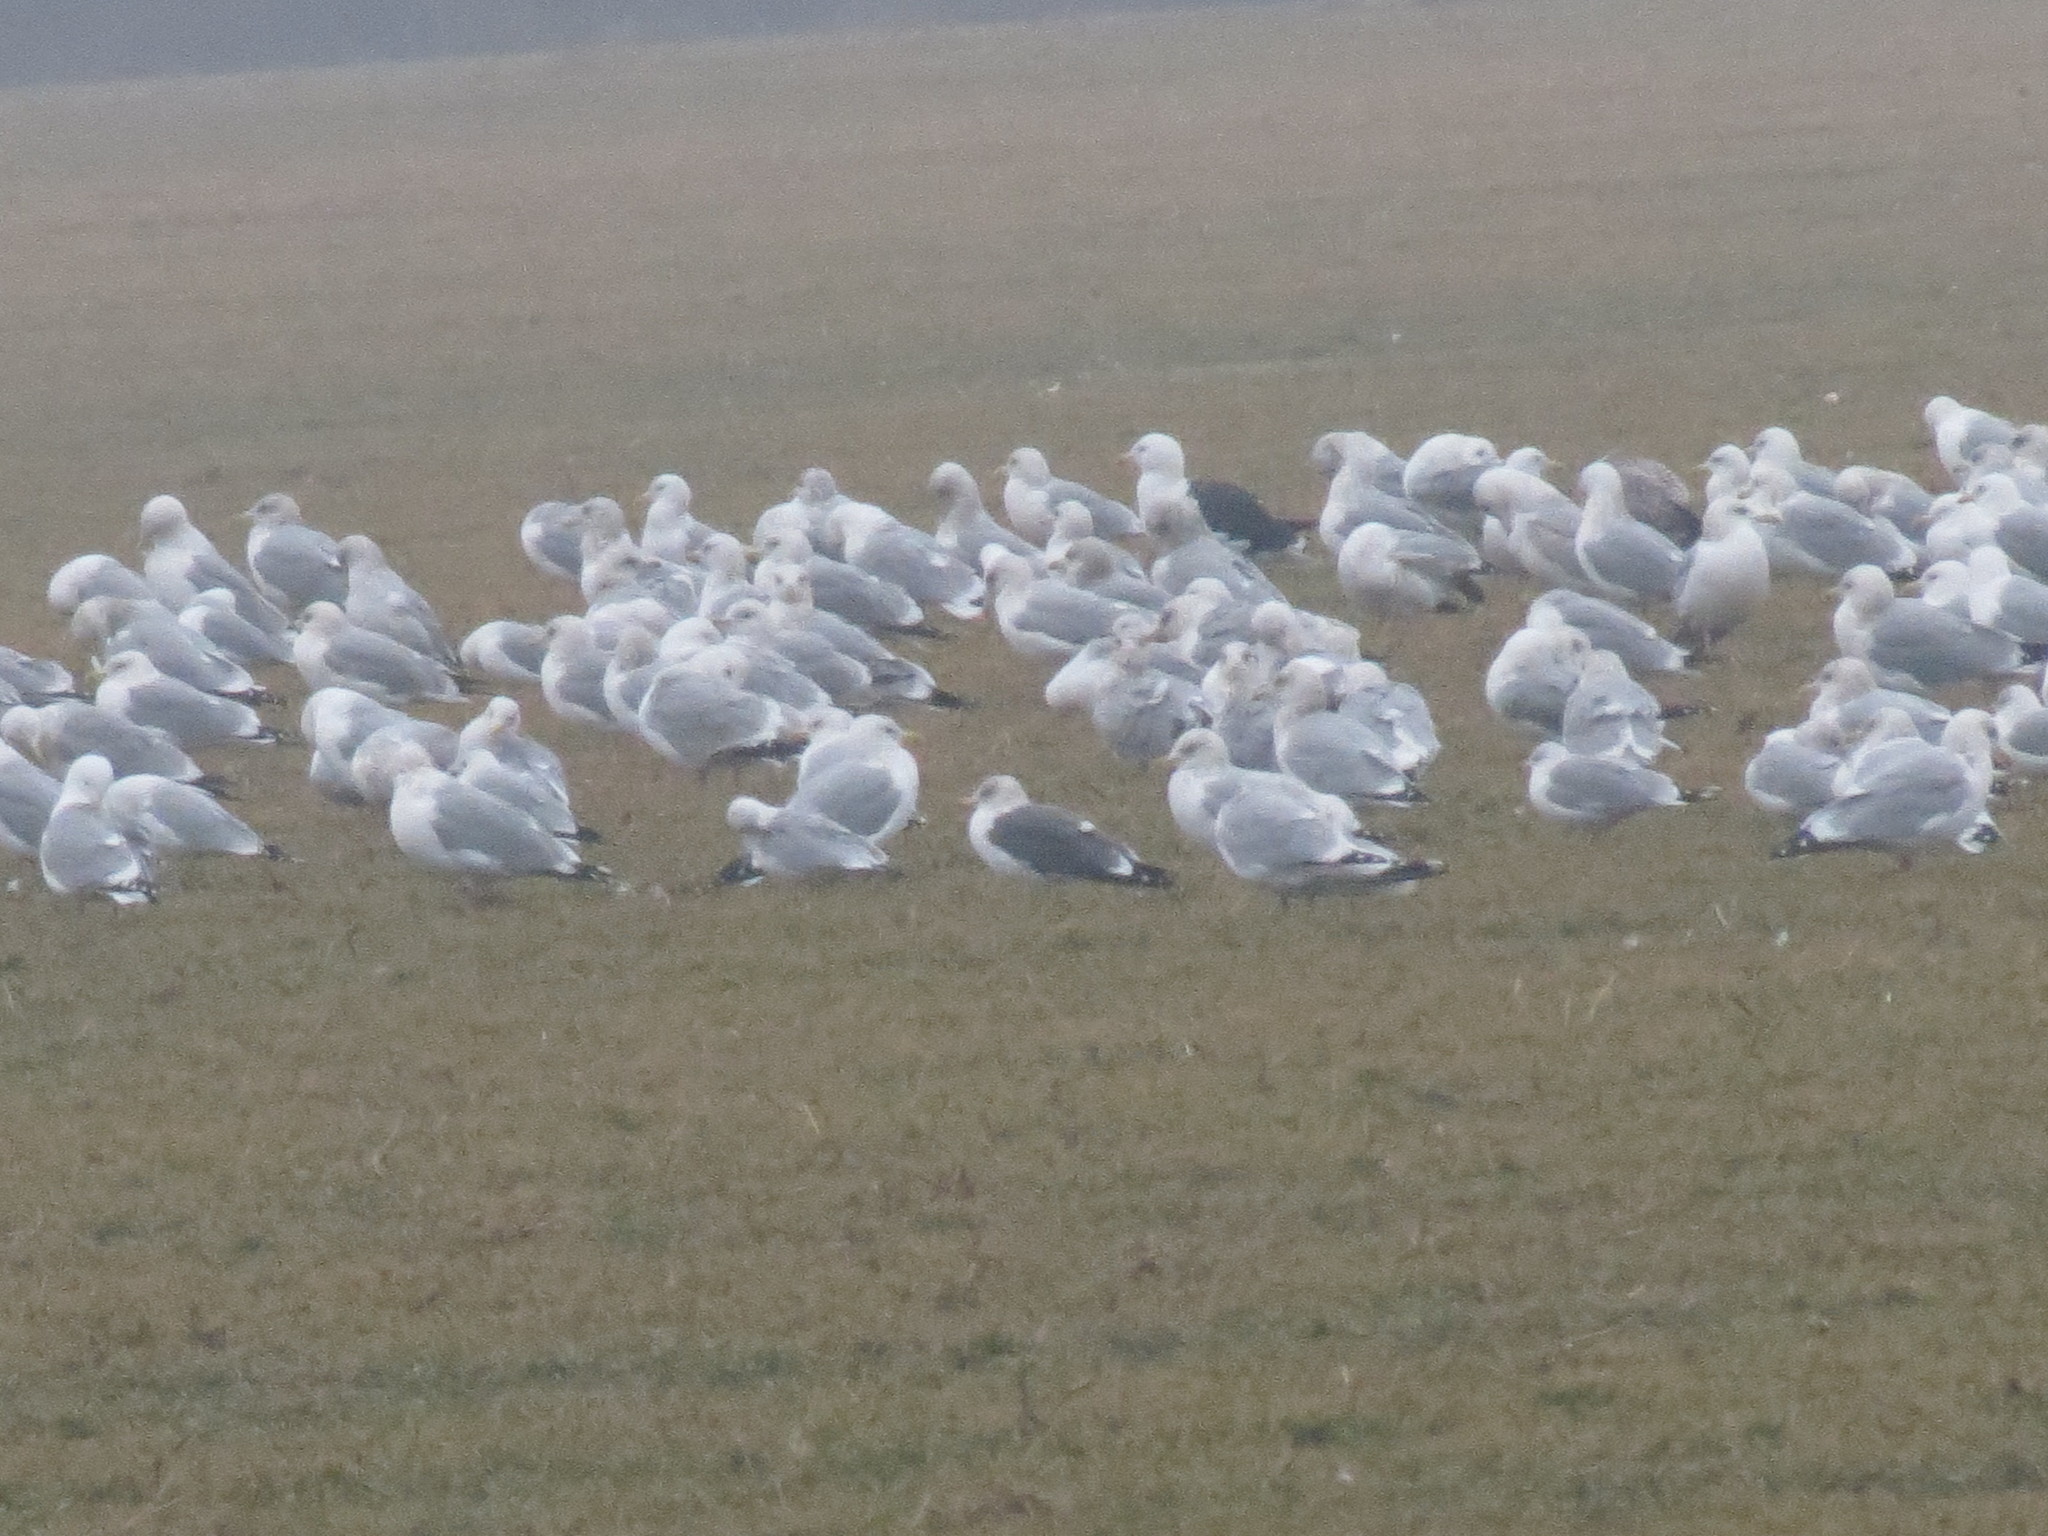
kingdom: Animalia
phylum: Chordata
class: Aves
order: Charadriiformes
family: Laridae
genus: Larus
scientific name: Larus fuscus
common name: Lesser black-backed gull
